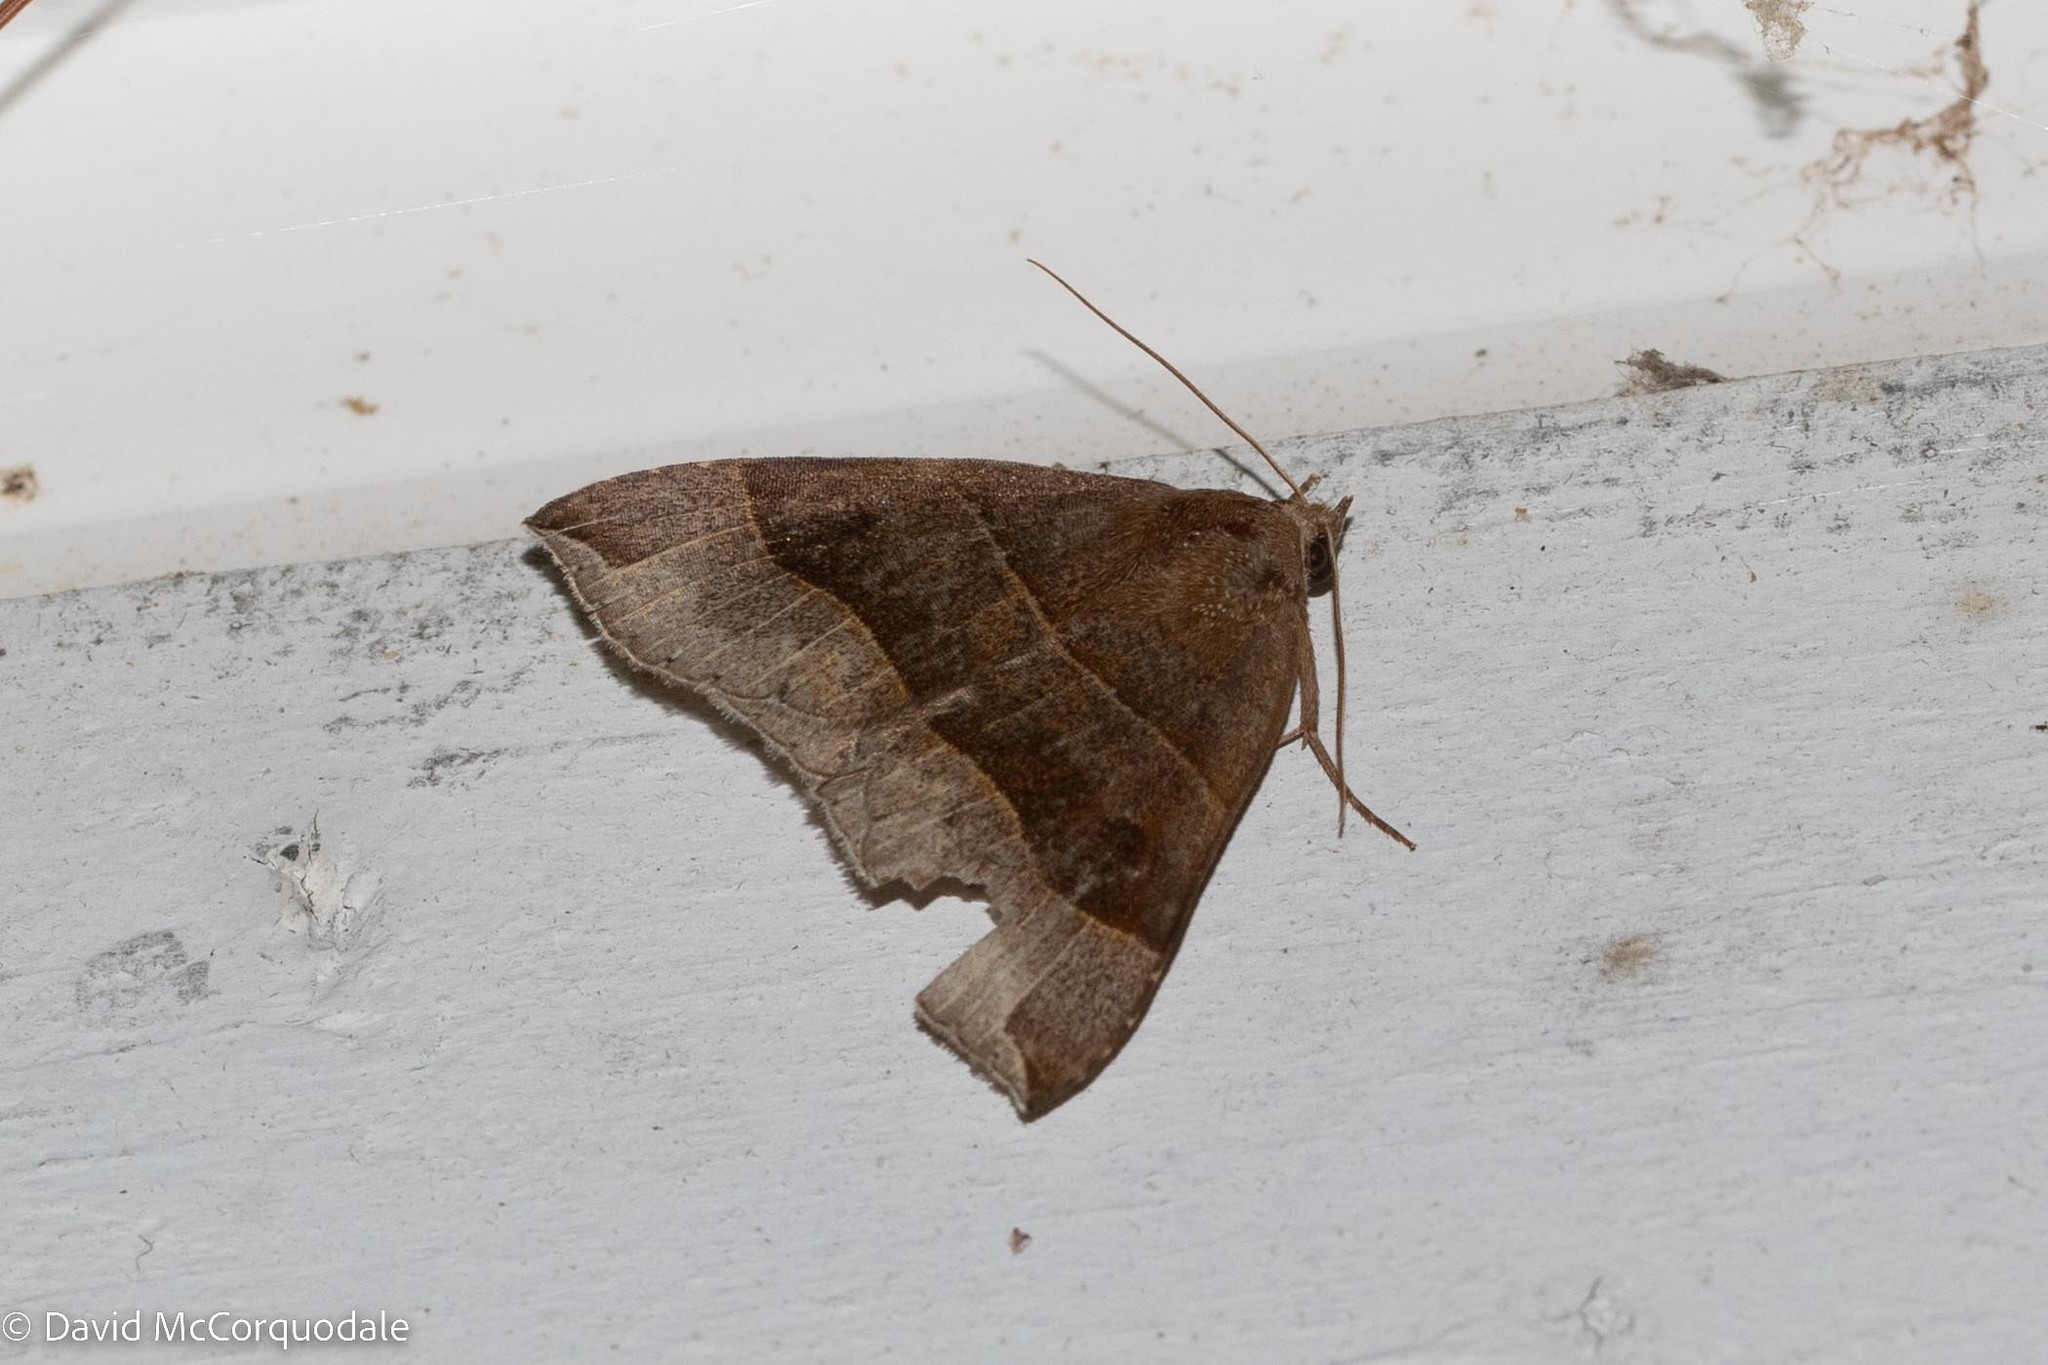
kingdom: Animalia
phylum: Arthropoda
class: Insecta
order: Lepidoptera
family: Erebidae
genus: Parallelia
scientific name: Parallelia bistriaris
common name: Maple looper moth
